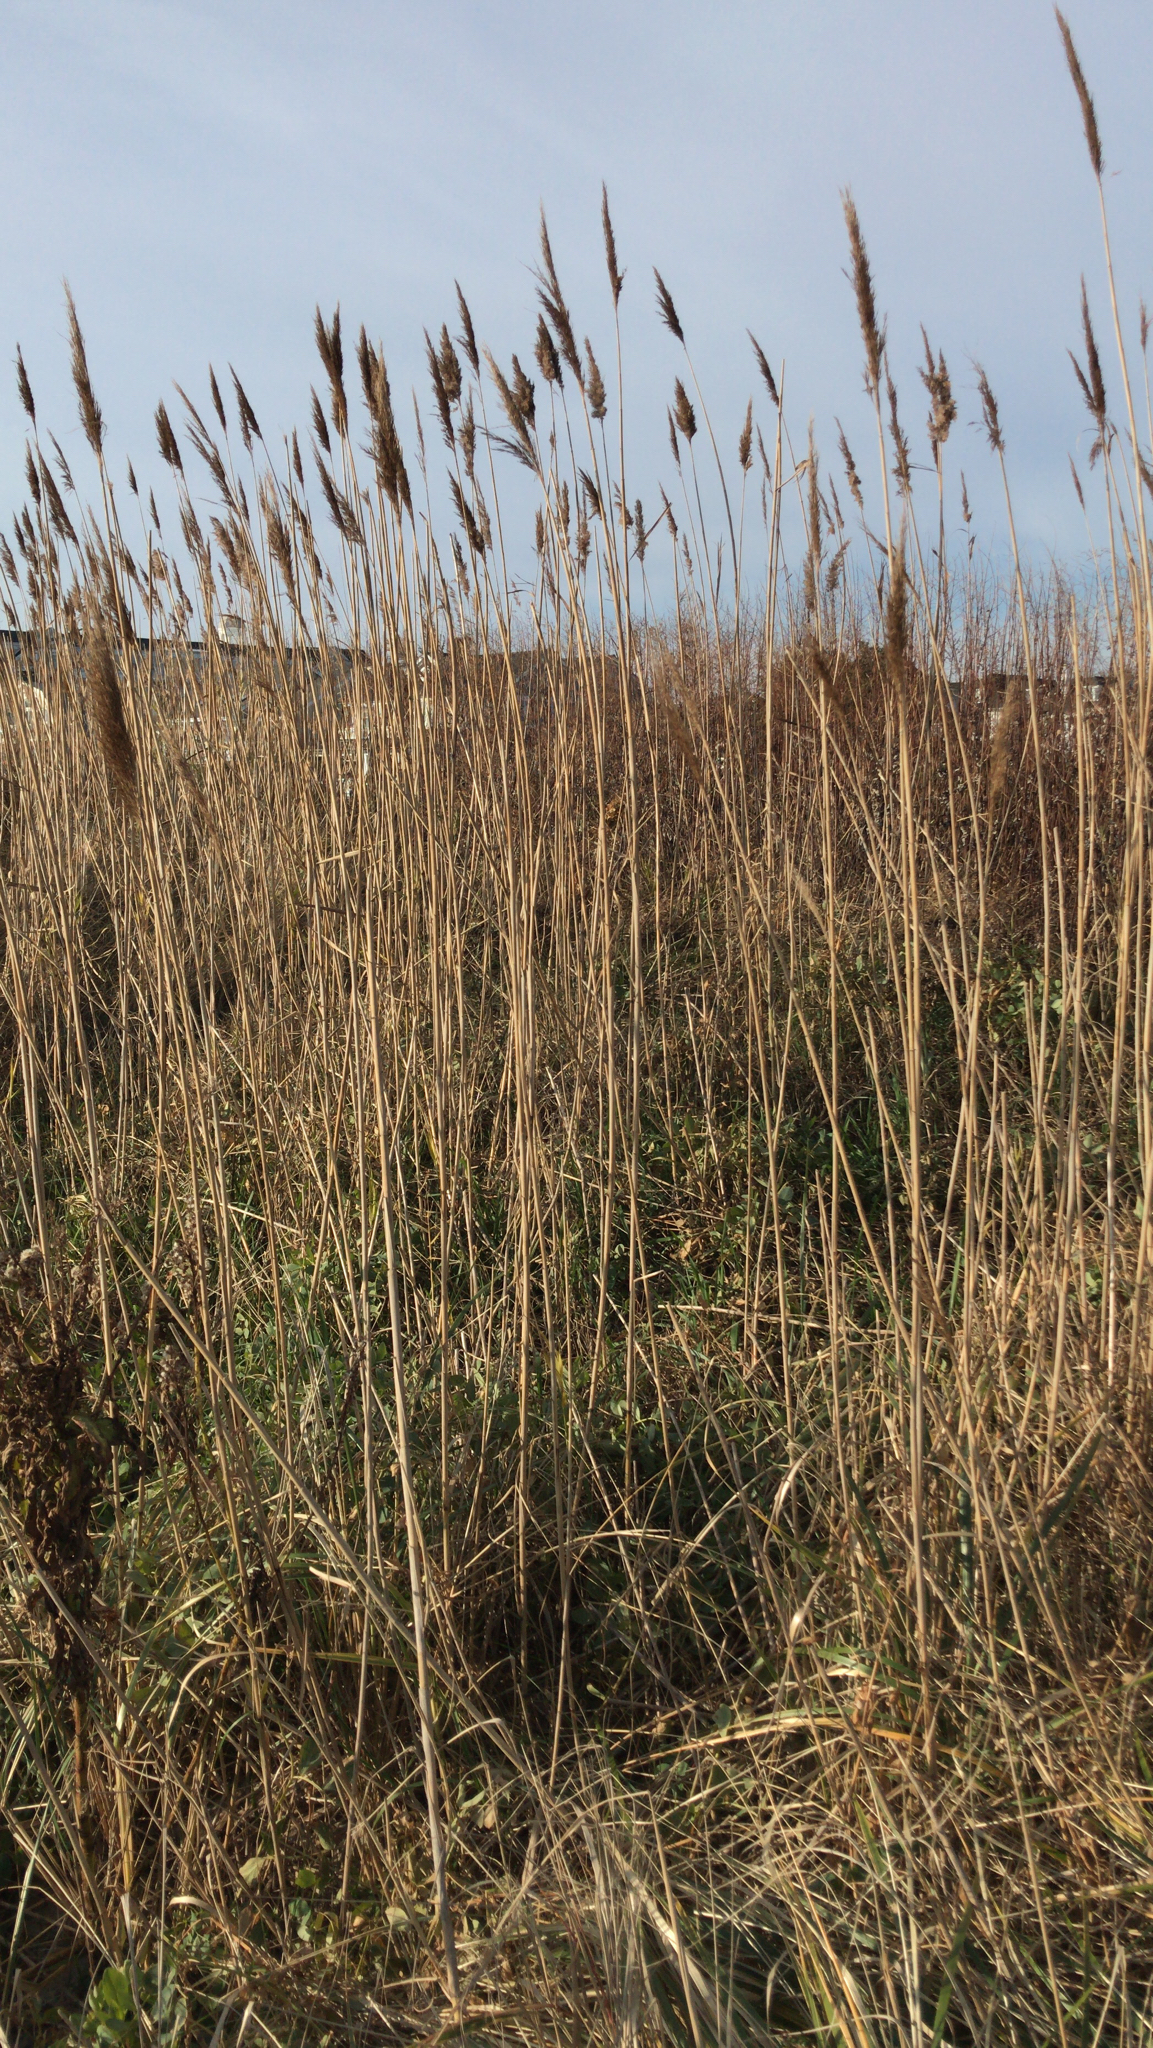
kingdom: Plantae
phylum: Tracheophyta
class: Liliopsida
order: Poales
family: Poaceae
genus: Phragmites
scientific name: Phragmites australis
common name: Common reed
